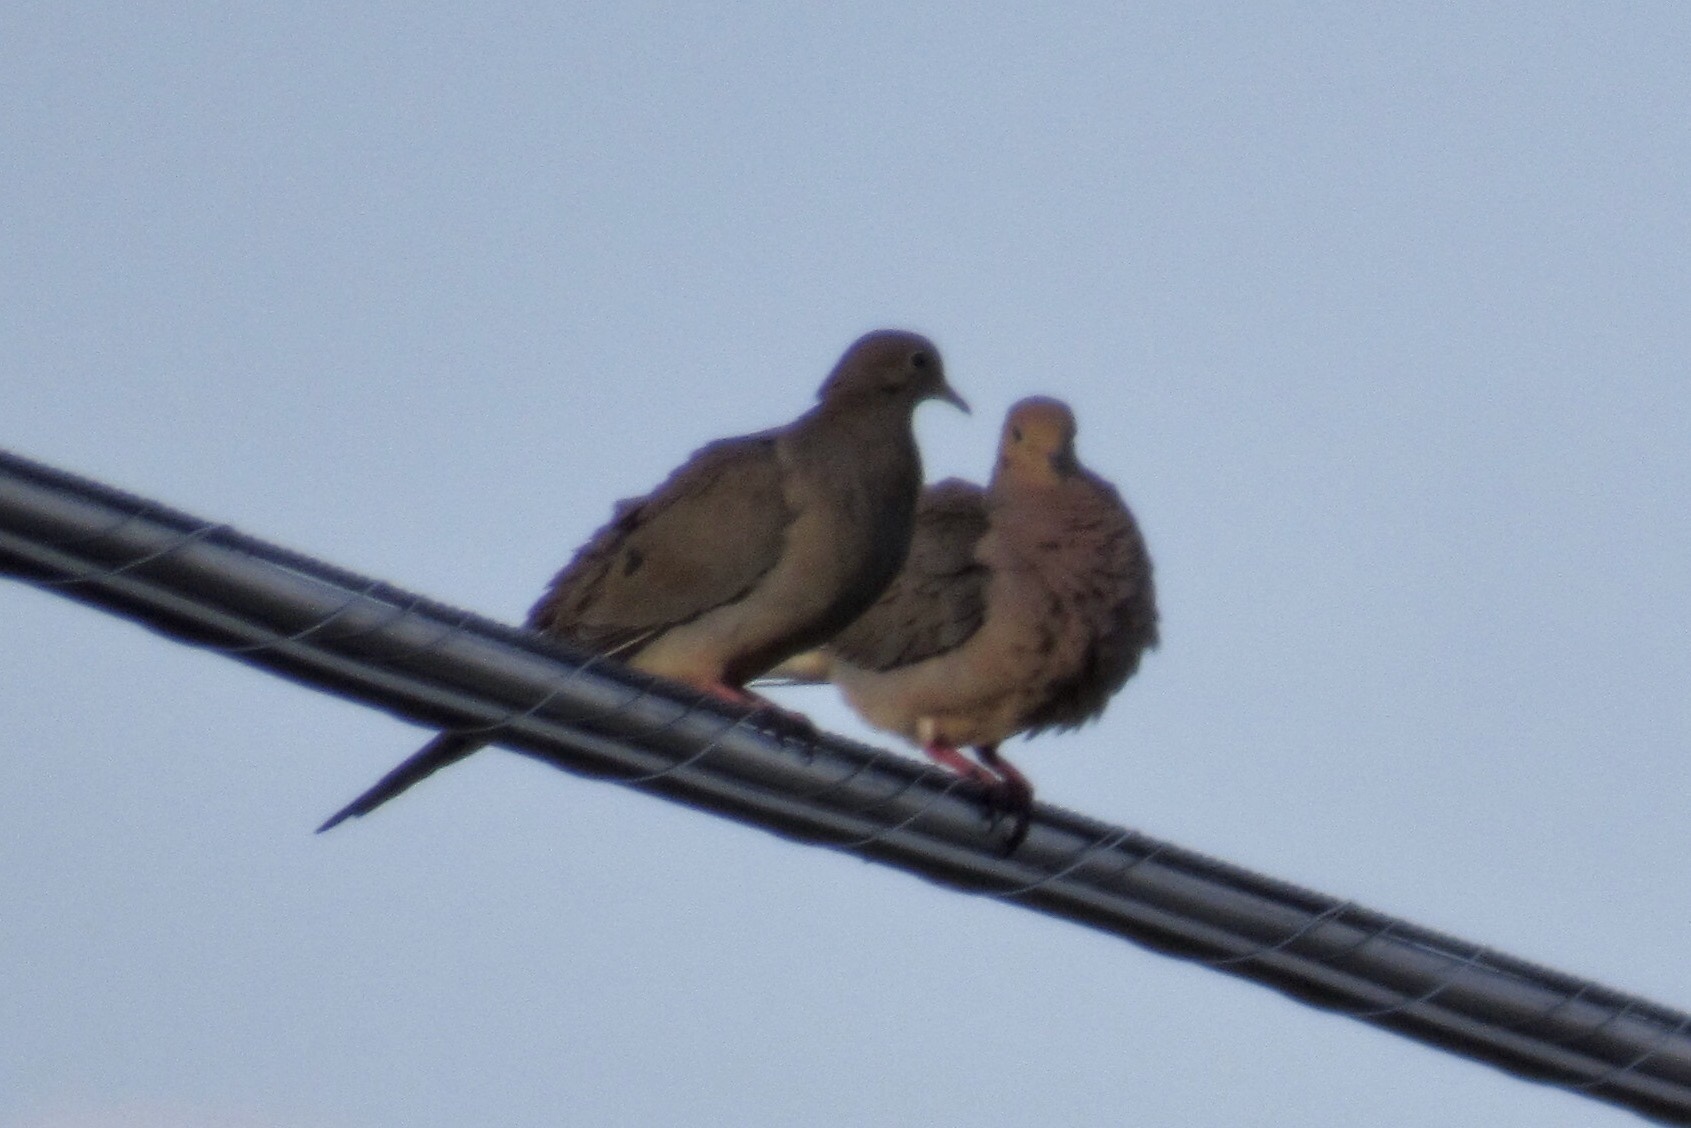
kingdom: Animalia
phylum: Chordata
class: Aves
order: Columbiformes
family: Columbidae
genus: Zenaida
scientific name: Zenaida macroura
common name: Mourning dove
